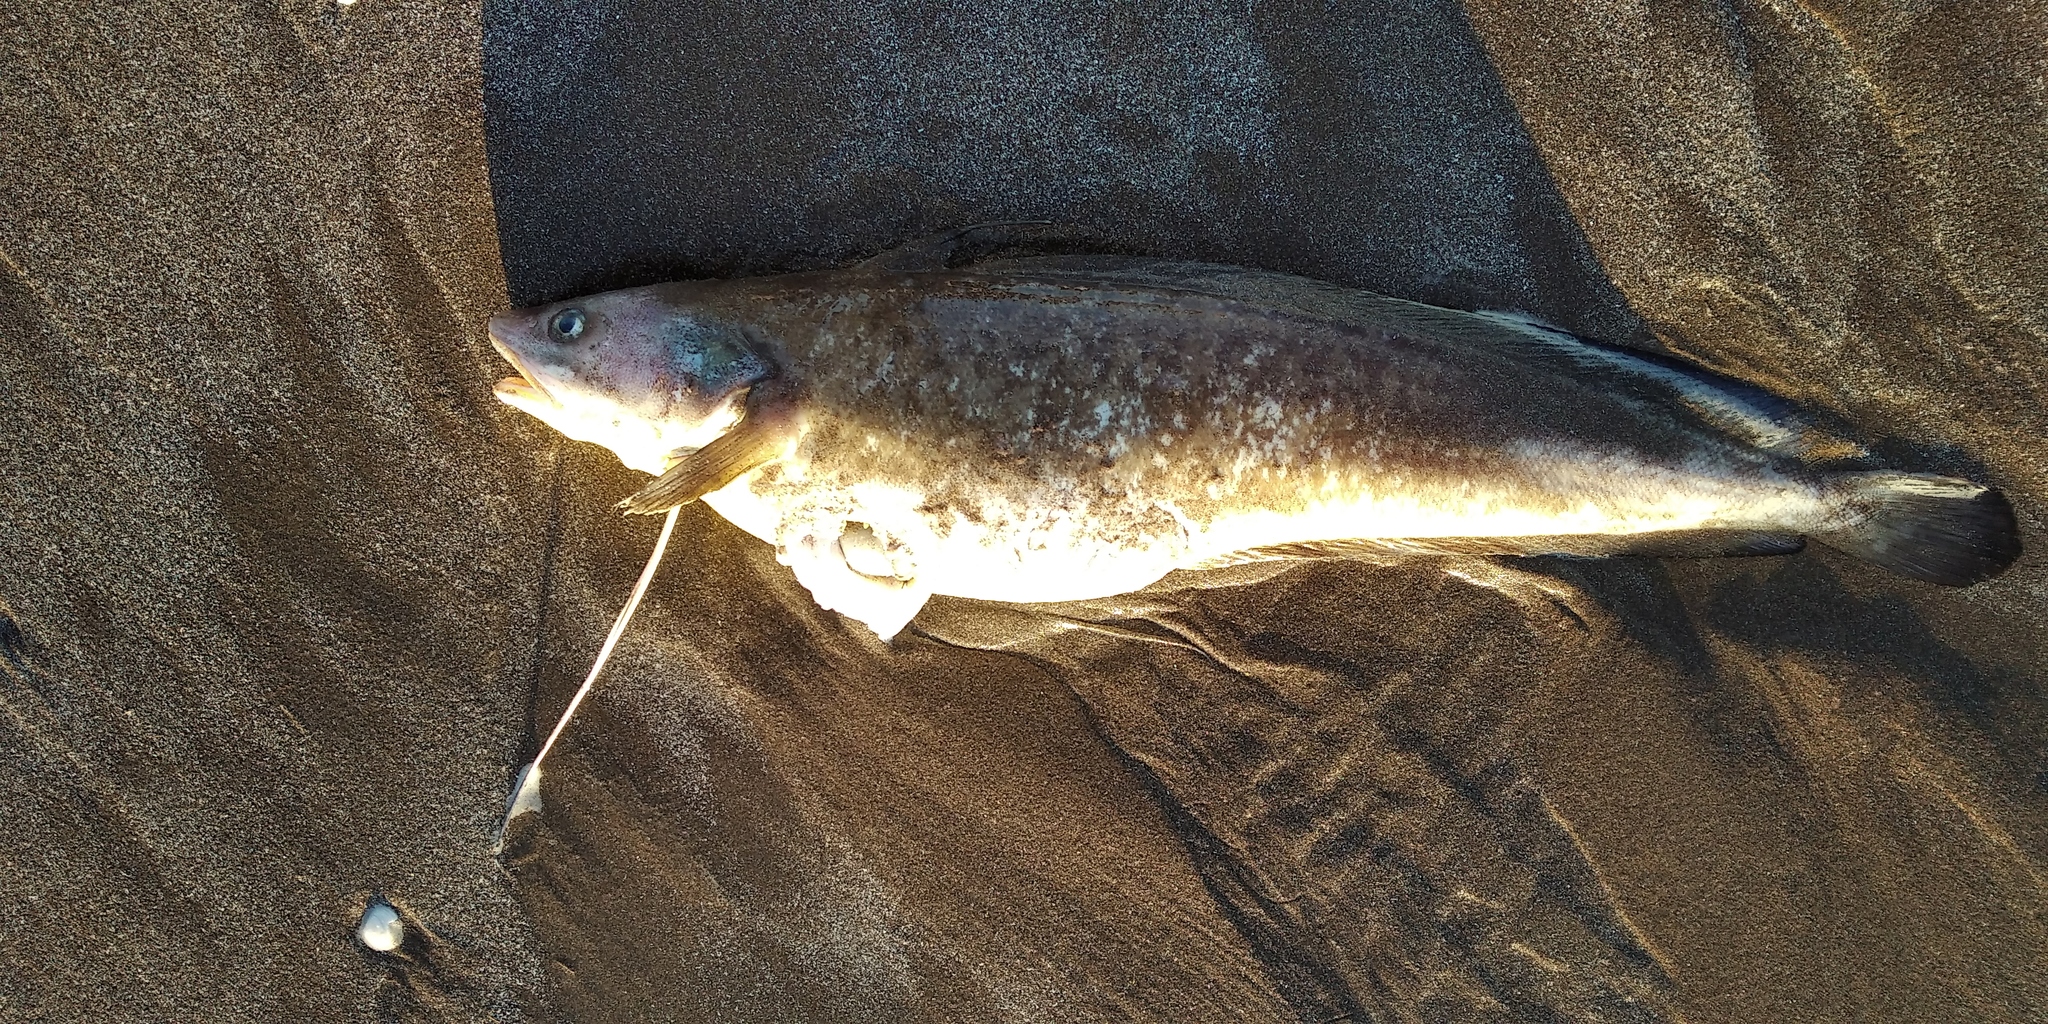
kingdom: Animalia
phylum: Chordata
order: Gadiformes
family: Phycidae
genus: Urophycis
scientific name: Urophycis brasiliensis
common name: Brazilian codling
